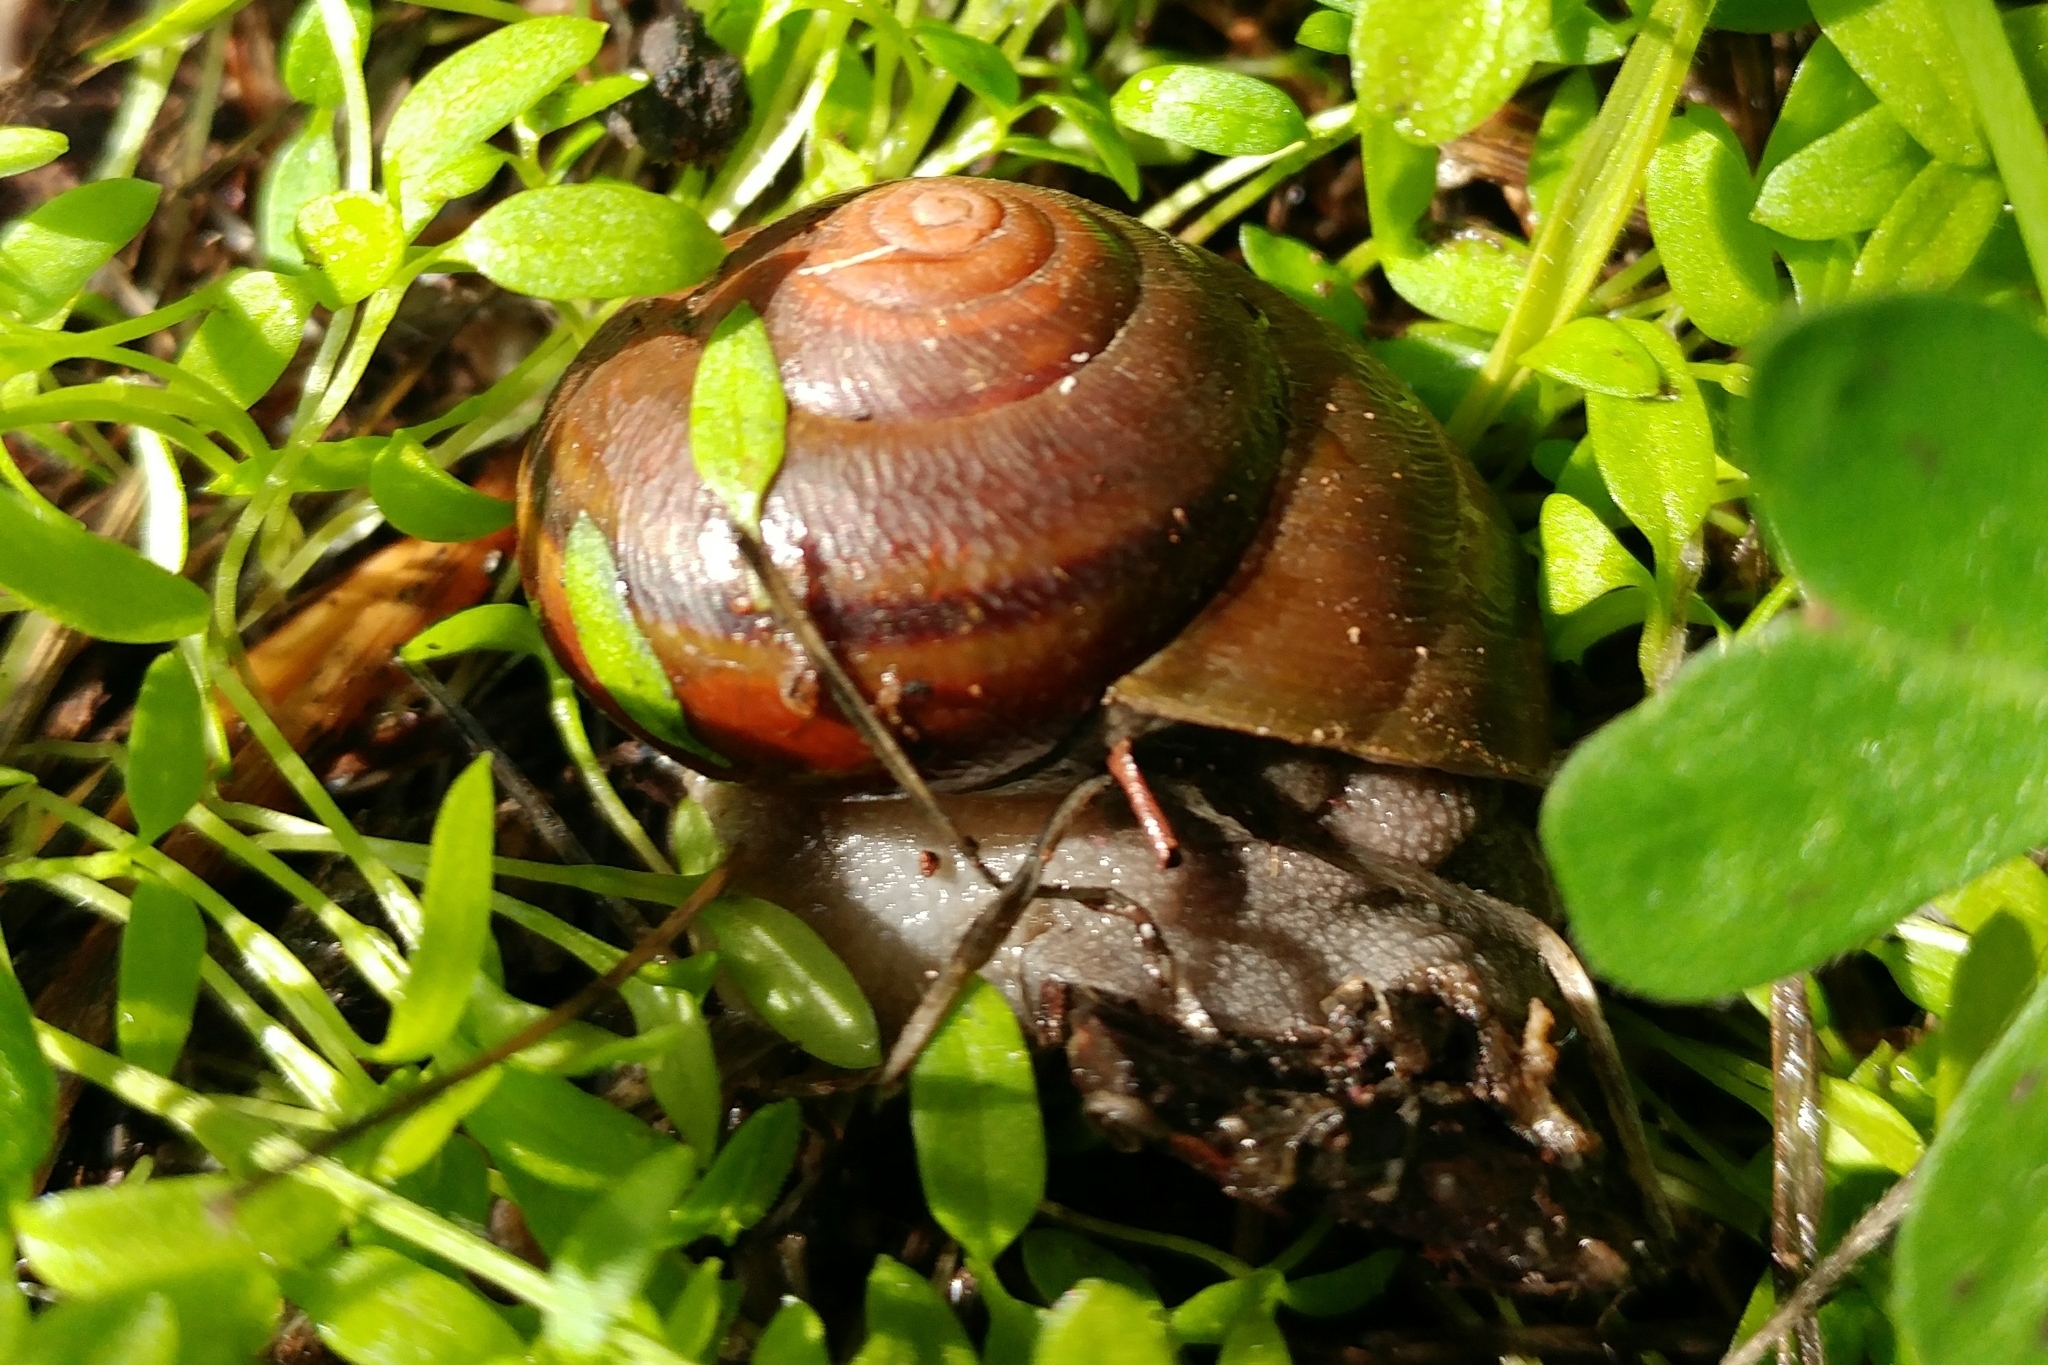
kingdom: Animalia
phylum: Mollusca
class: Gastropoda
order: Stylommatophora
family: Xanthonychidae
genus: Helminthoglypta
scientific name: Helminthoglypta tudiculata
